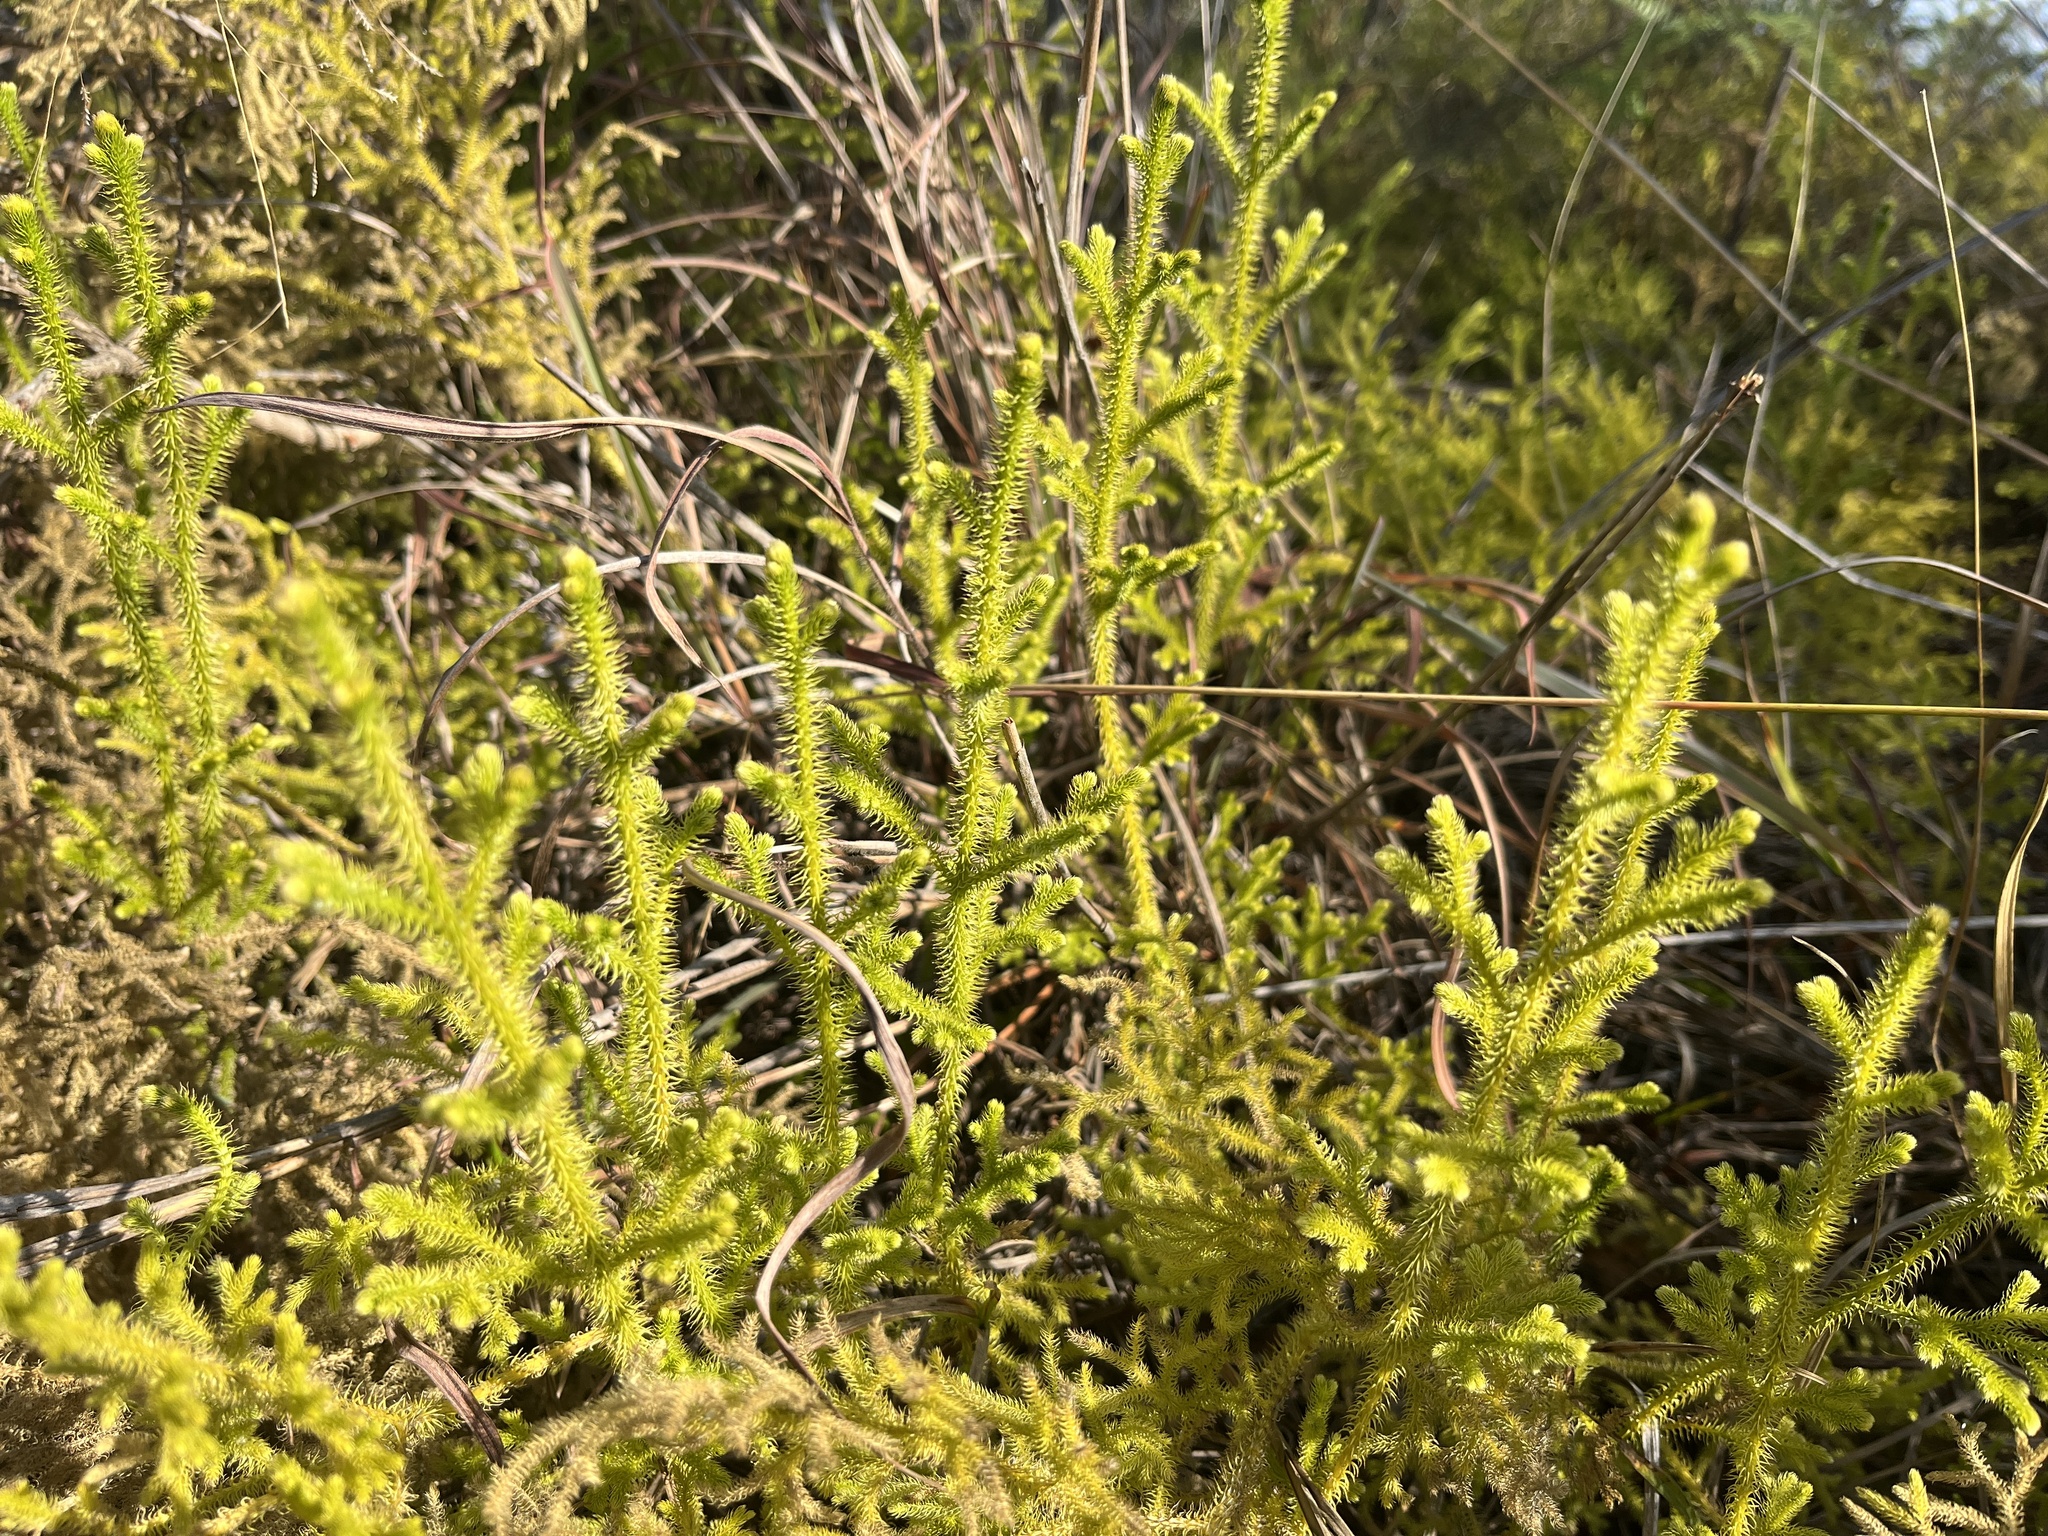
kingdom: Plantae
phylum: Tracheophyta
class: Lycopodiopsida
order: Lycopodiales
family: Lycopodiaceae
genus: Palhinhaea
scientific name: Palhinhaea cernua
